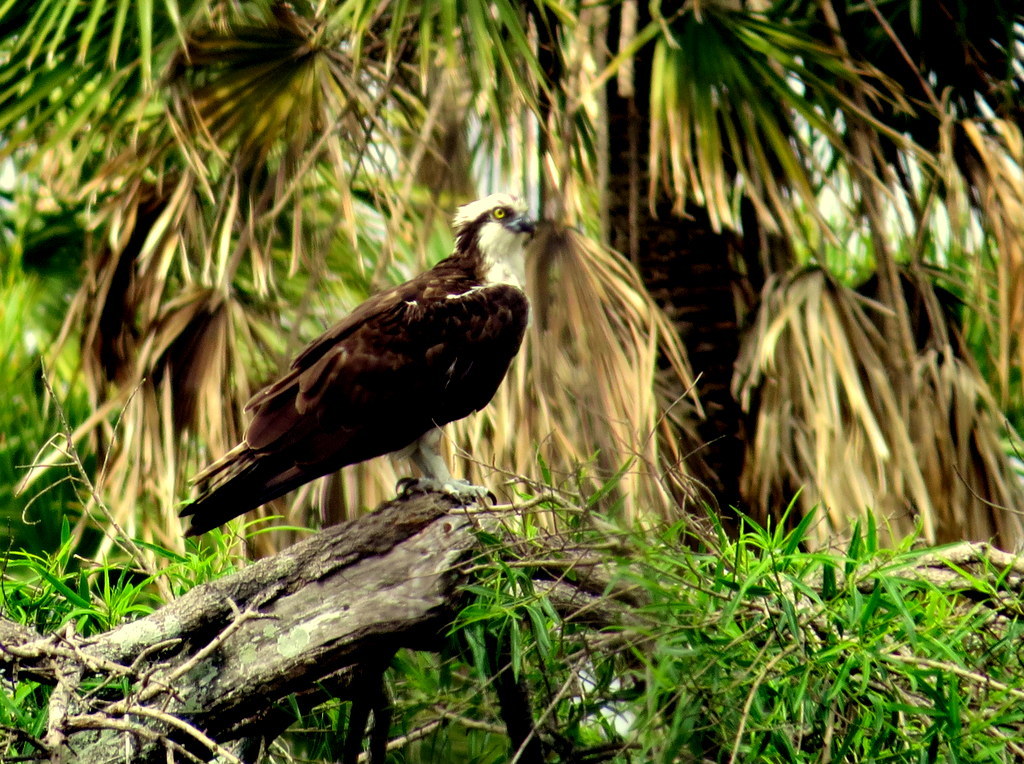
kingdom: Animalia
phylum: Chordata
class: Aves
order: Accipitriformes
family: Pandionidae
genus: Pandion
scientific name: Pandion haliaetus
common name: Osprey
